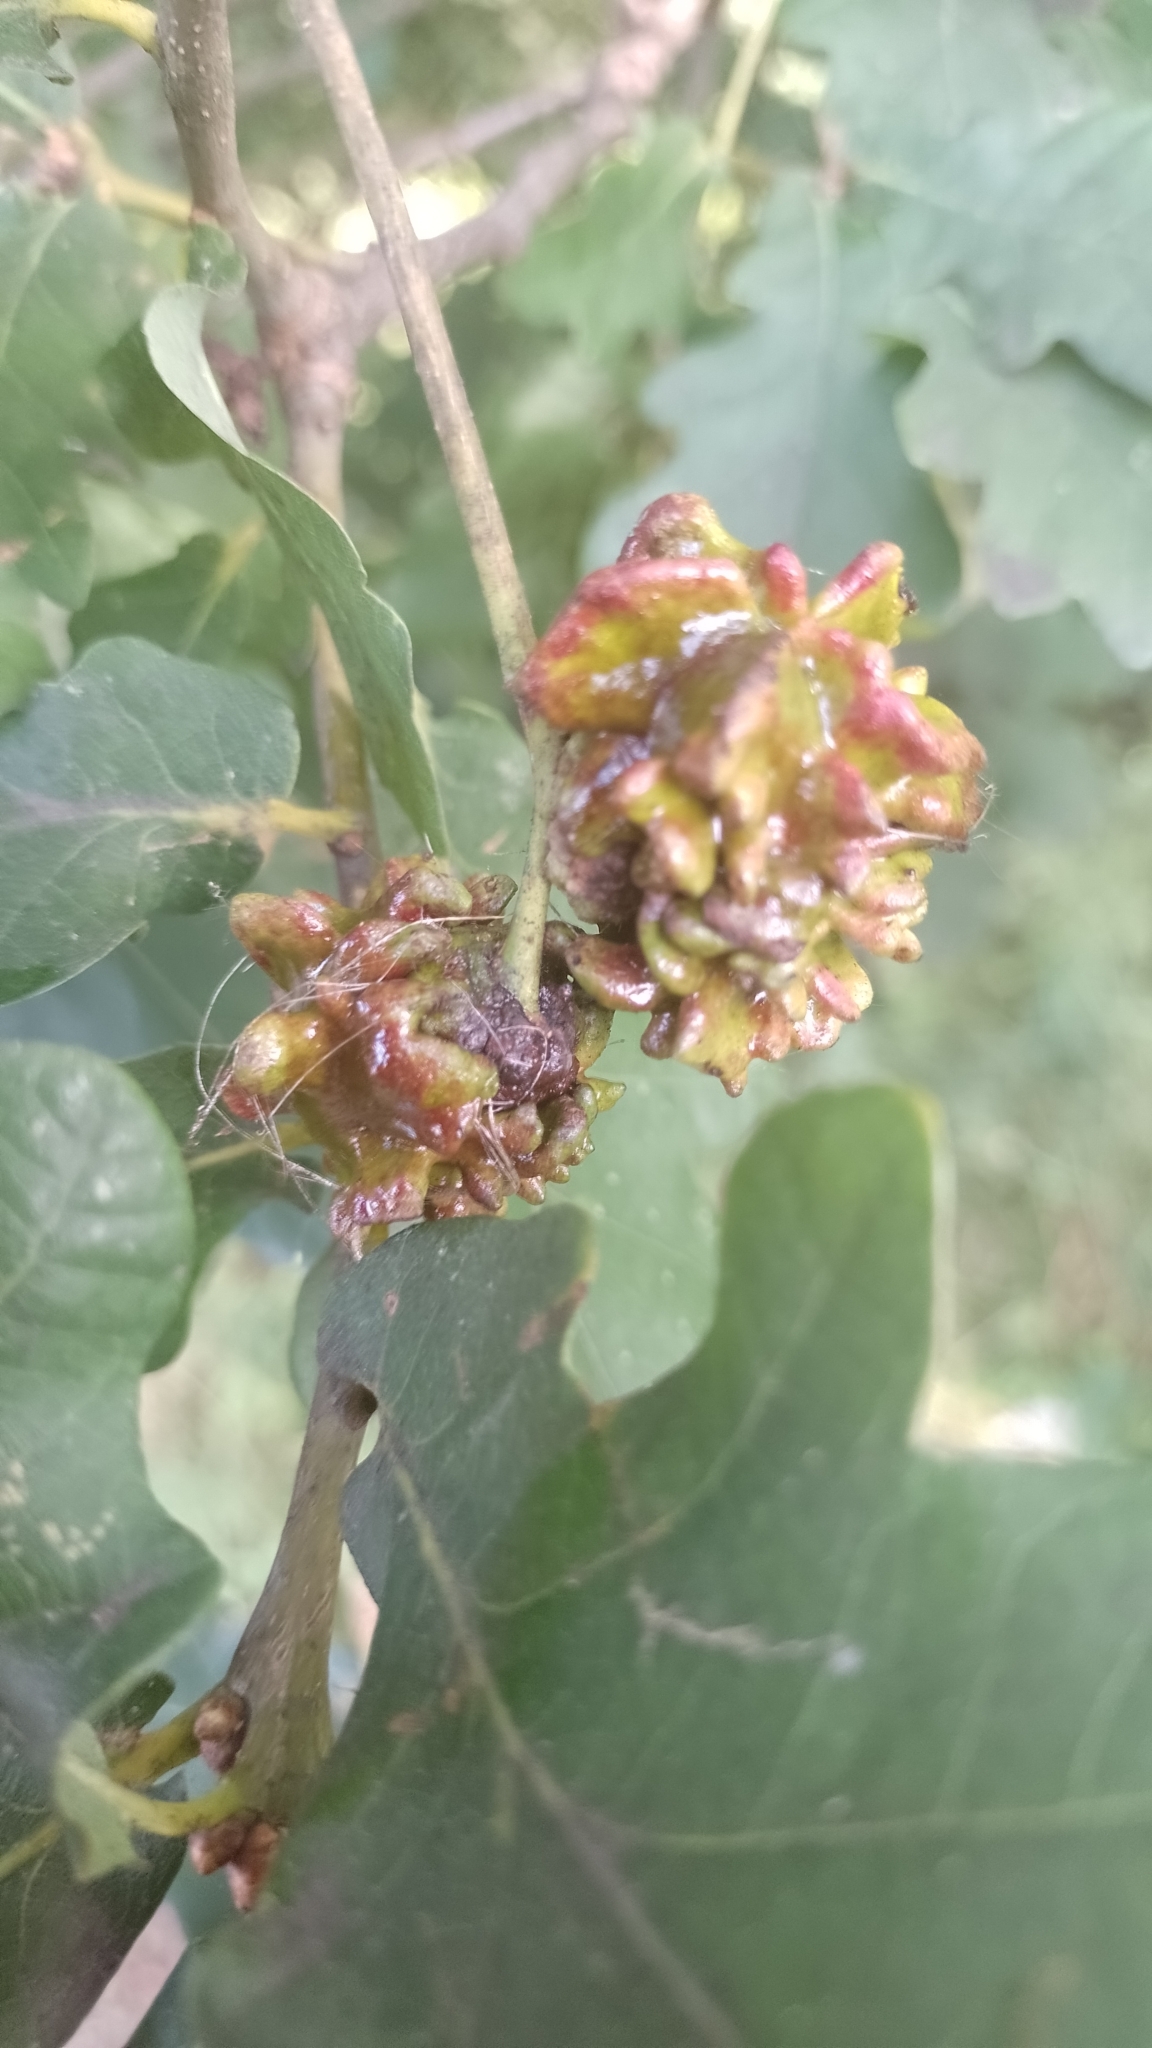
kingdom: Animalia
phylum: Arthropoda
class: Insecta
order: Hymenoptera
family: Cynipidae
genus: Andricus
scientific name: Andricus quercuscalicis
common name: Knopper gall
